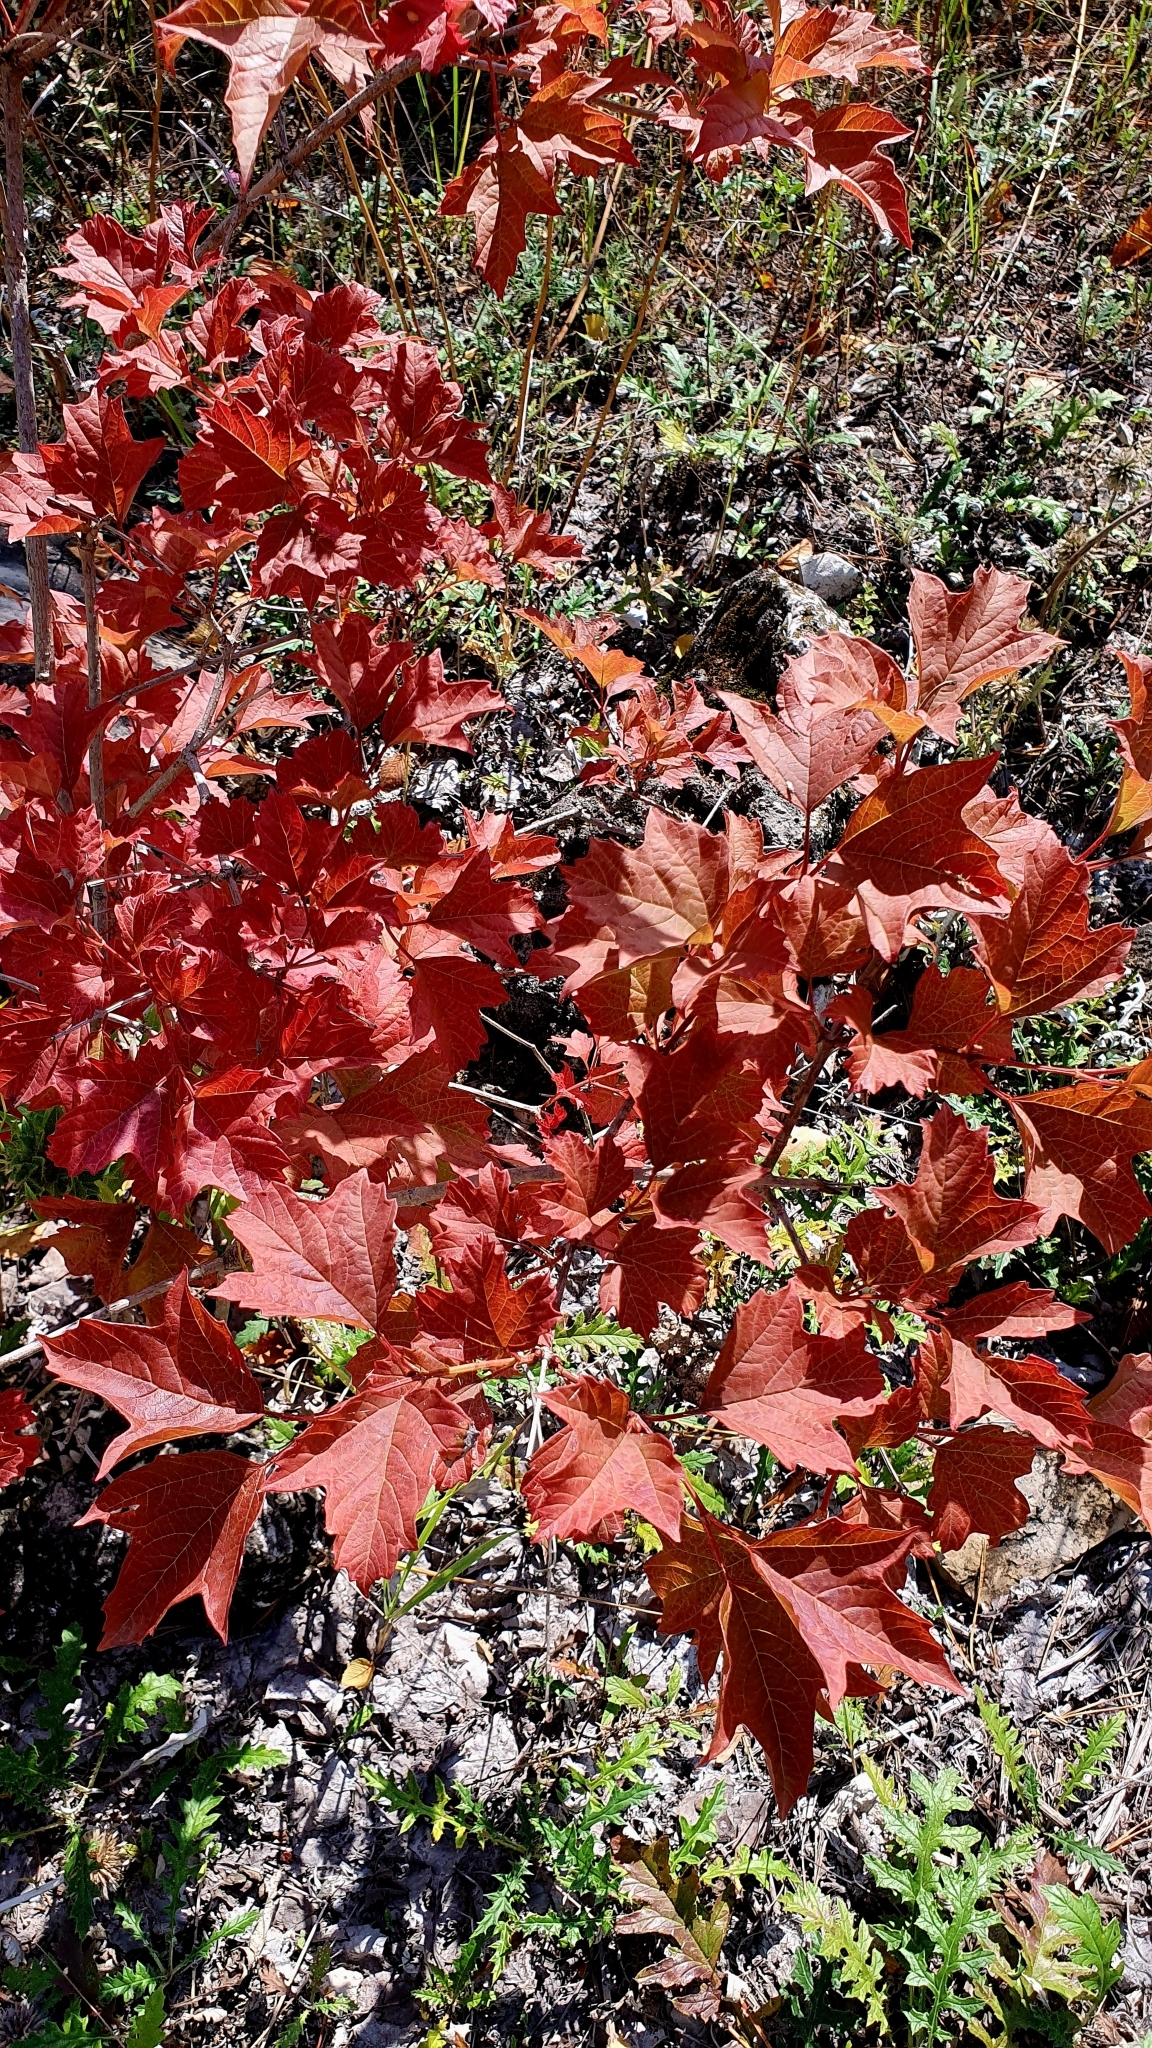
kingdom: Plantae
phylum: Tracheophyta
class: Magnoliopsida
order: Dipsacales
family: Viburnaceae
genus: Viburnum
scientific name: Viburnum opulus
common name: Guelder-rose
